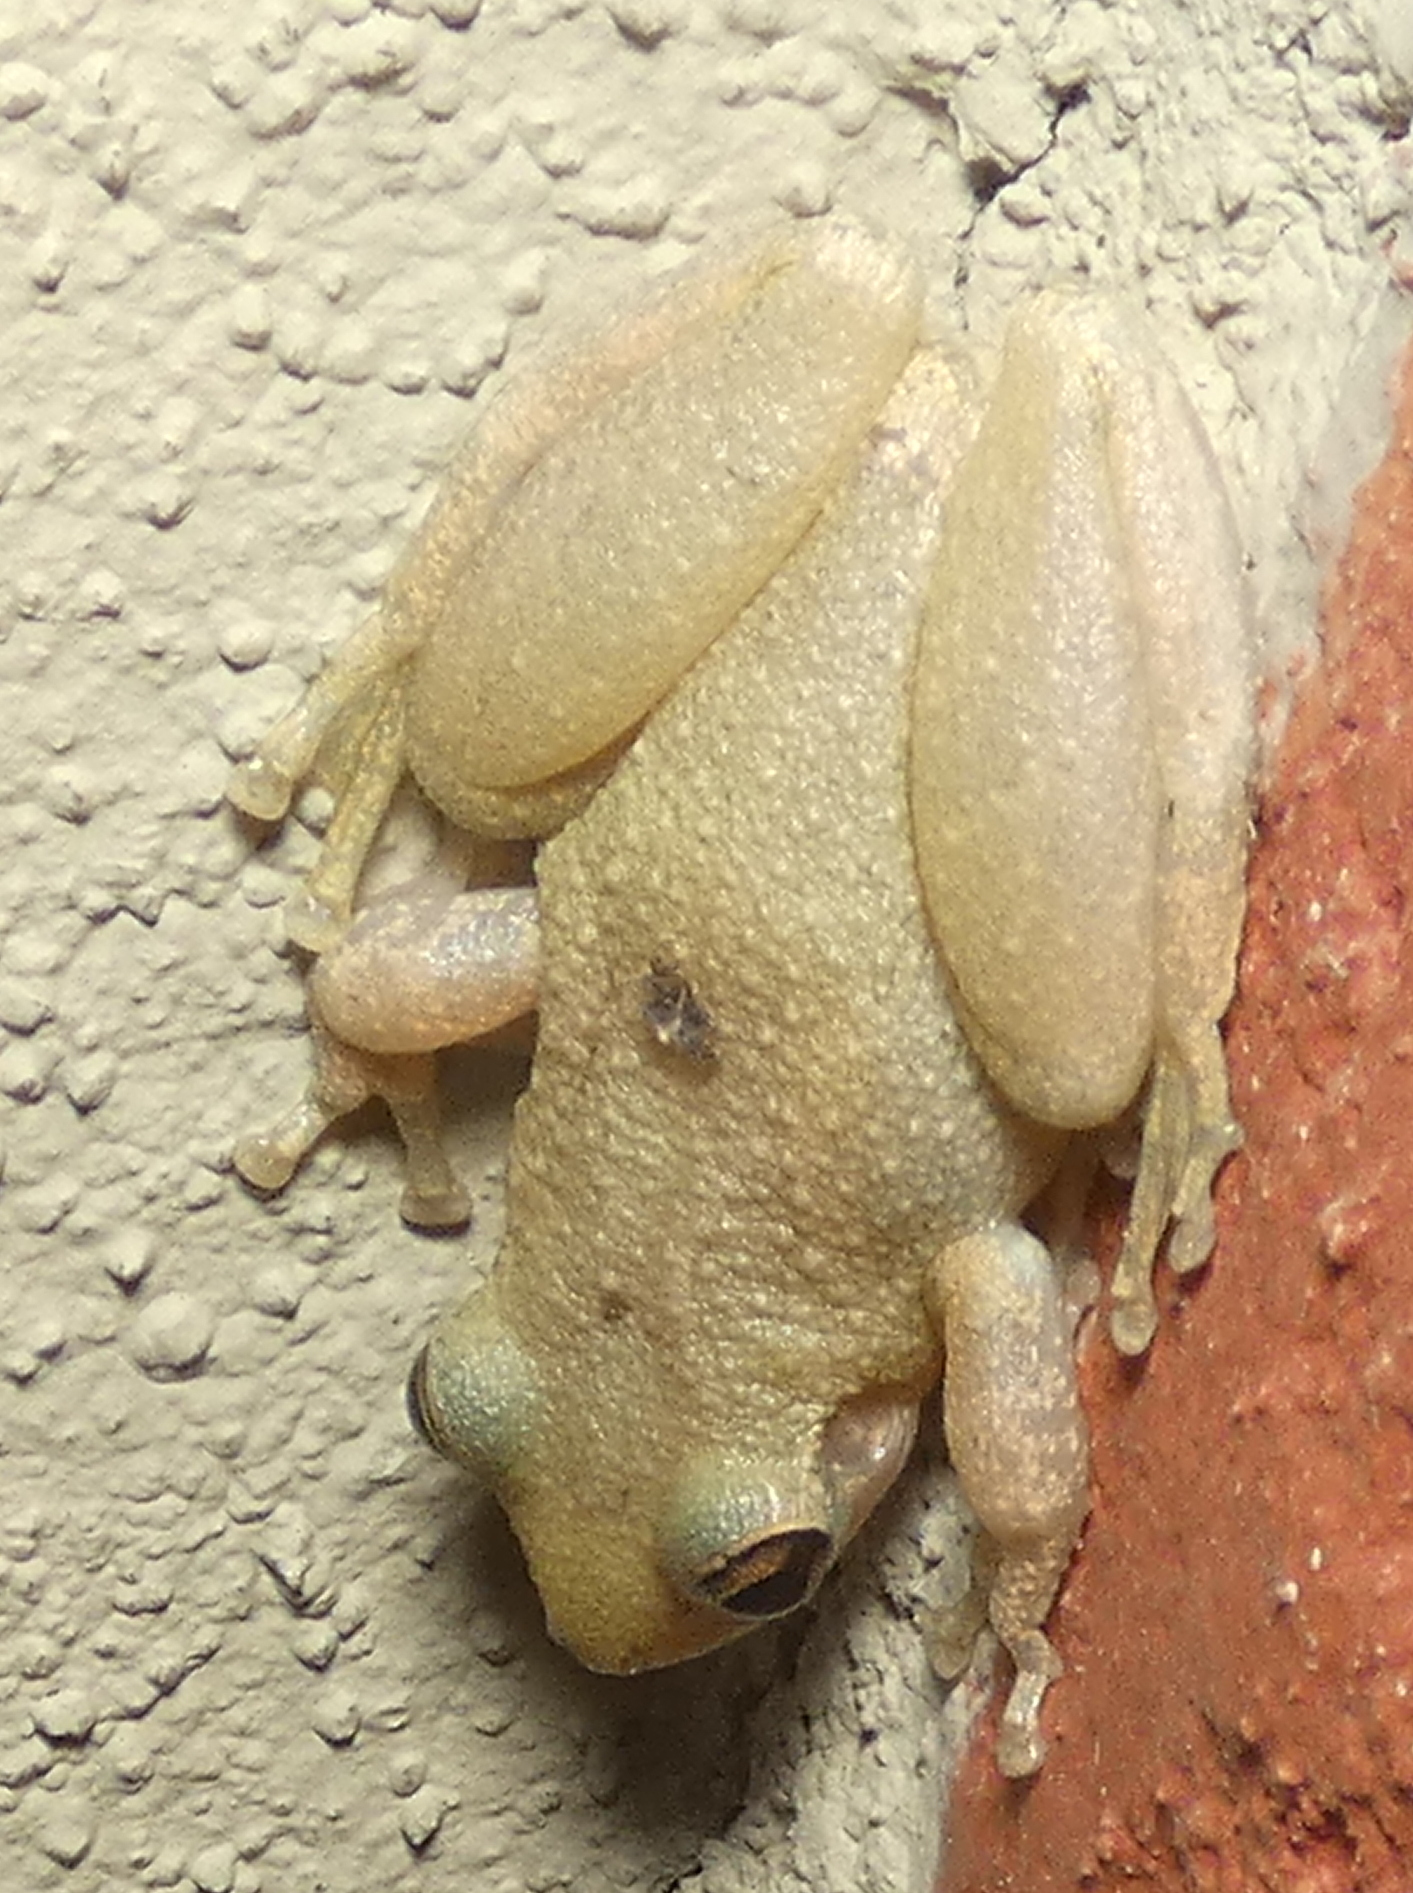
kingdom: Animalia
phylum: Chordata
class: Amphibia
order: Anura
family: Hylidae
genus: Scinax
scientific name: Scinax x-signatus
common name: Venezuela snouted treefrog
